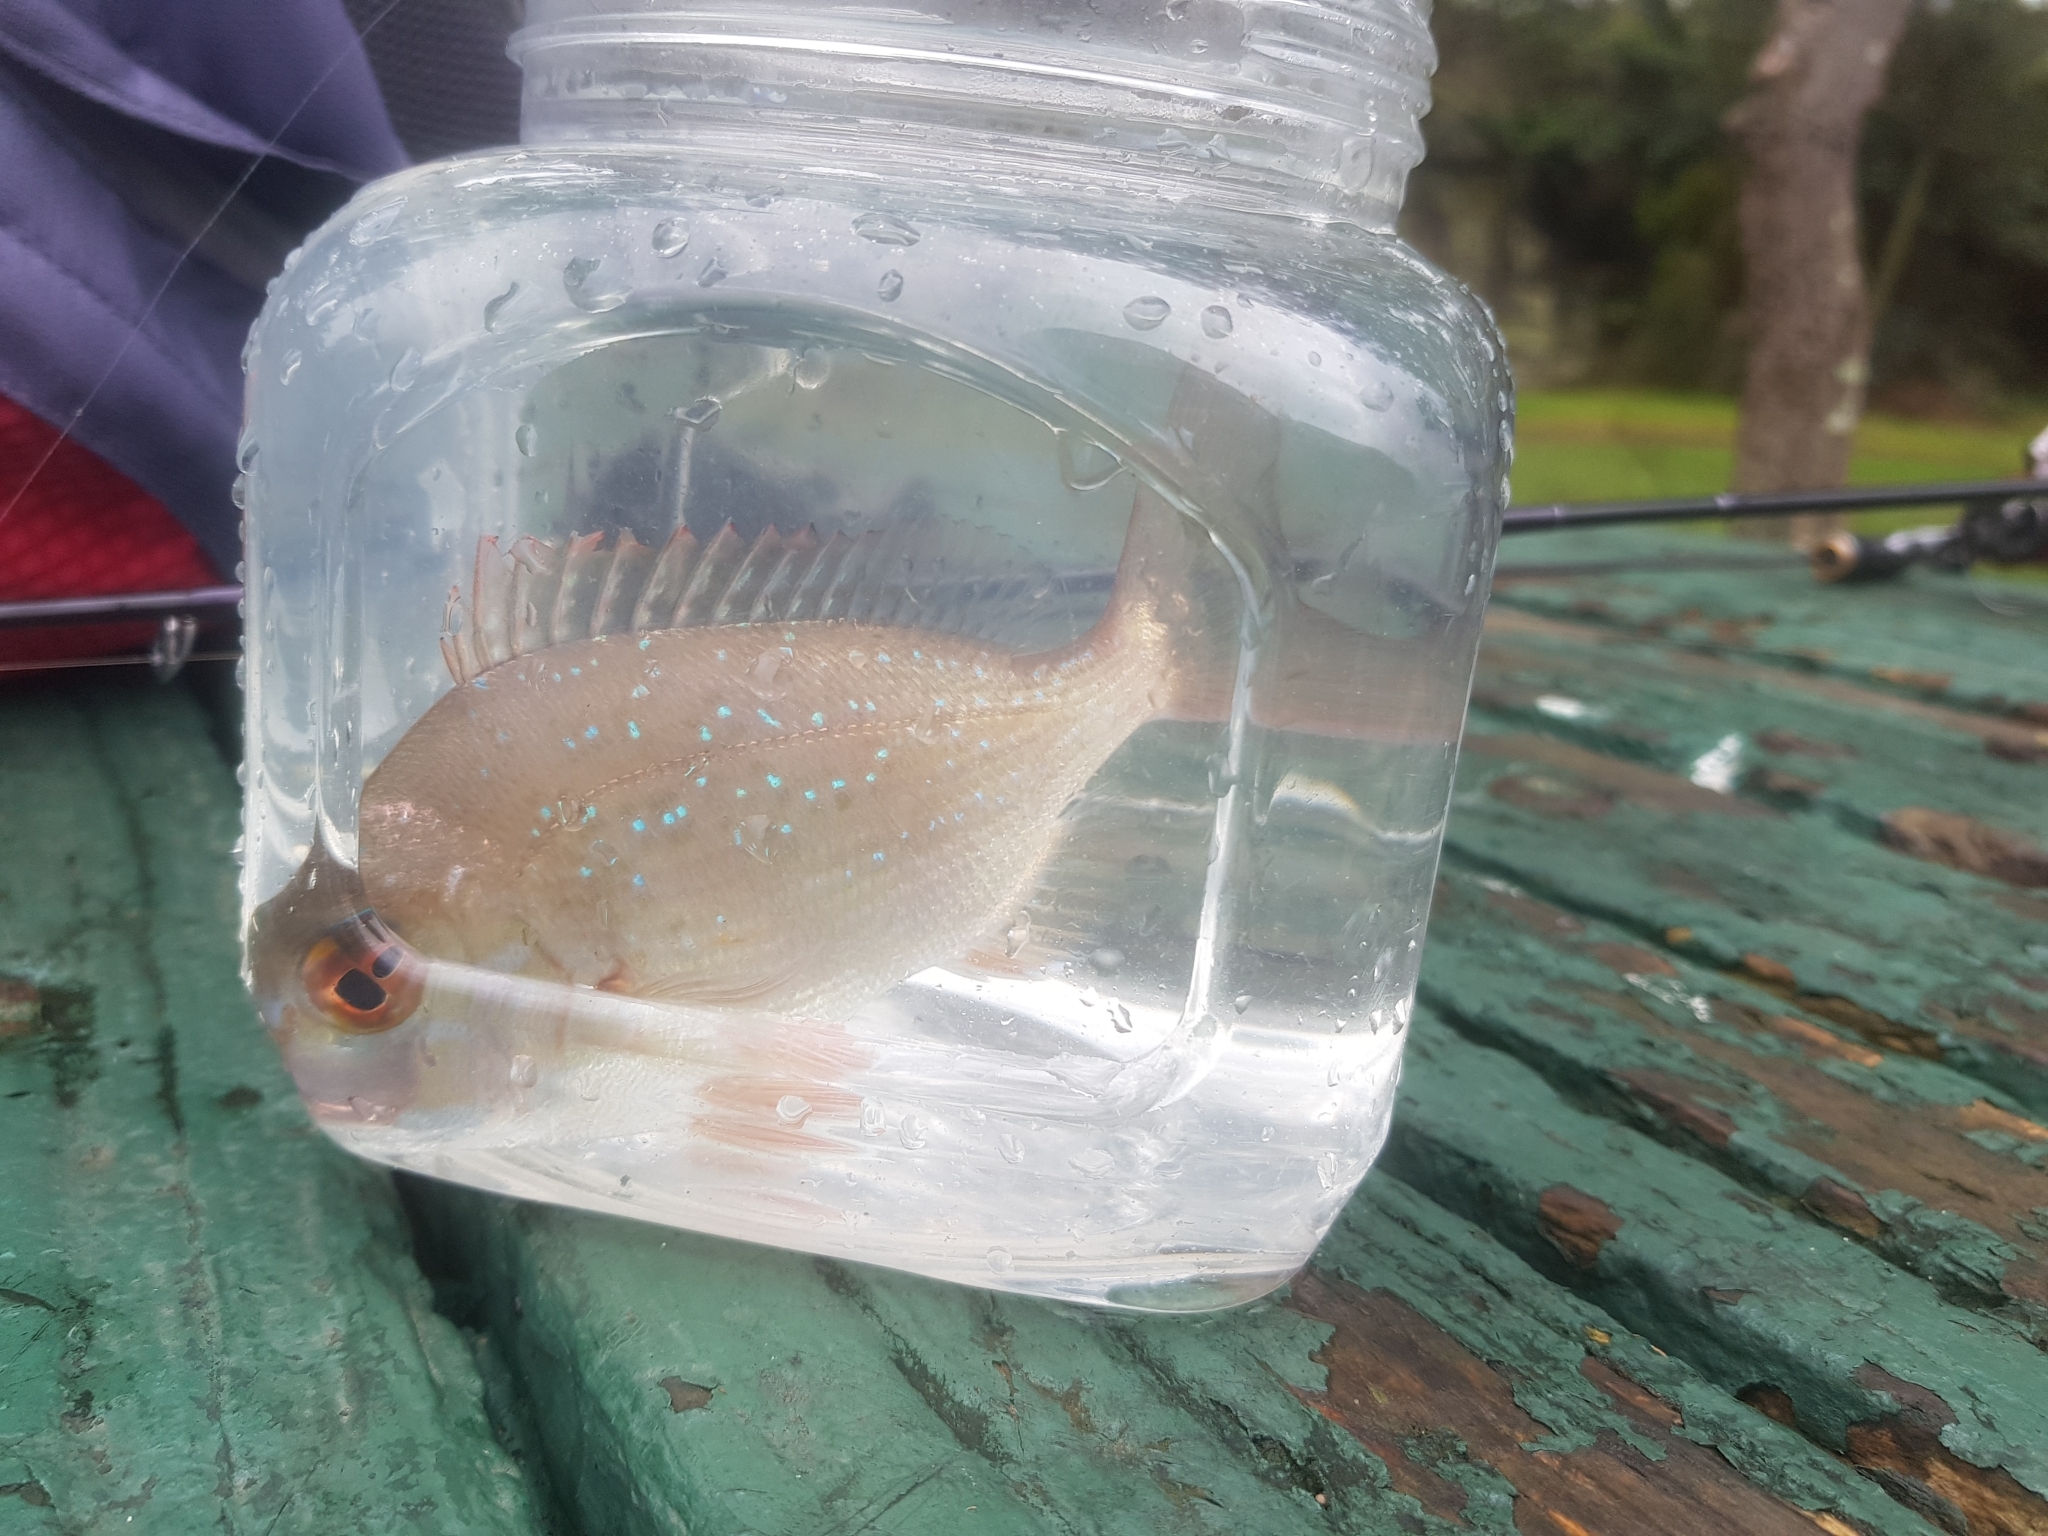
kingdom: Animalia
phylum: Chordata
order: Perciformes
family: Sparidae
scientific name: Sparidae
